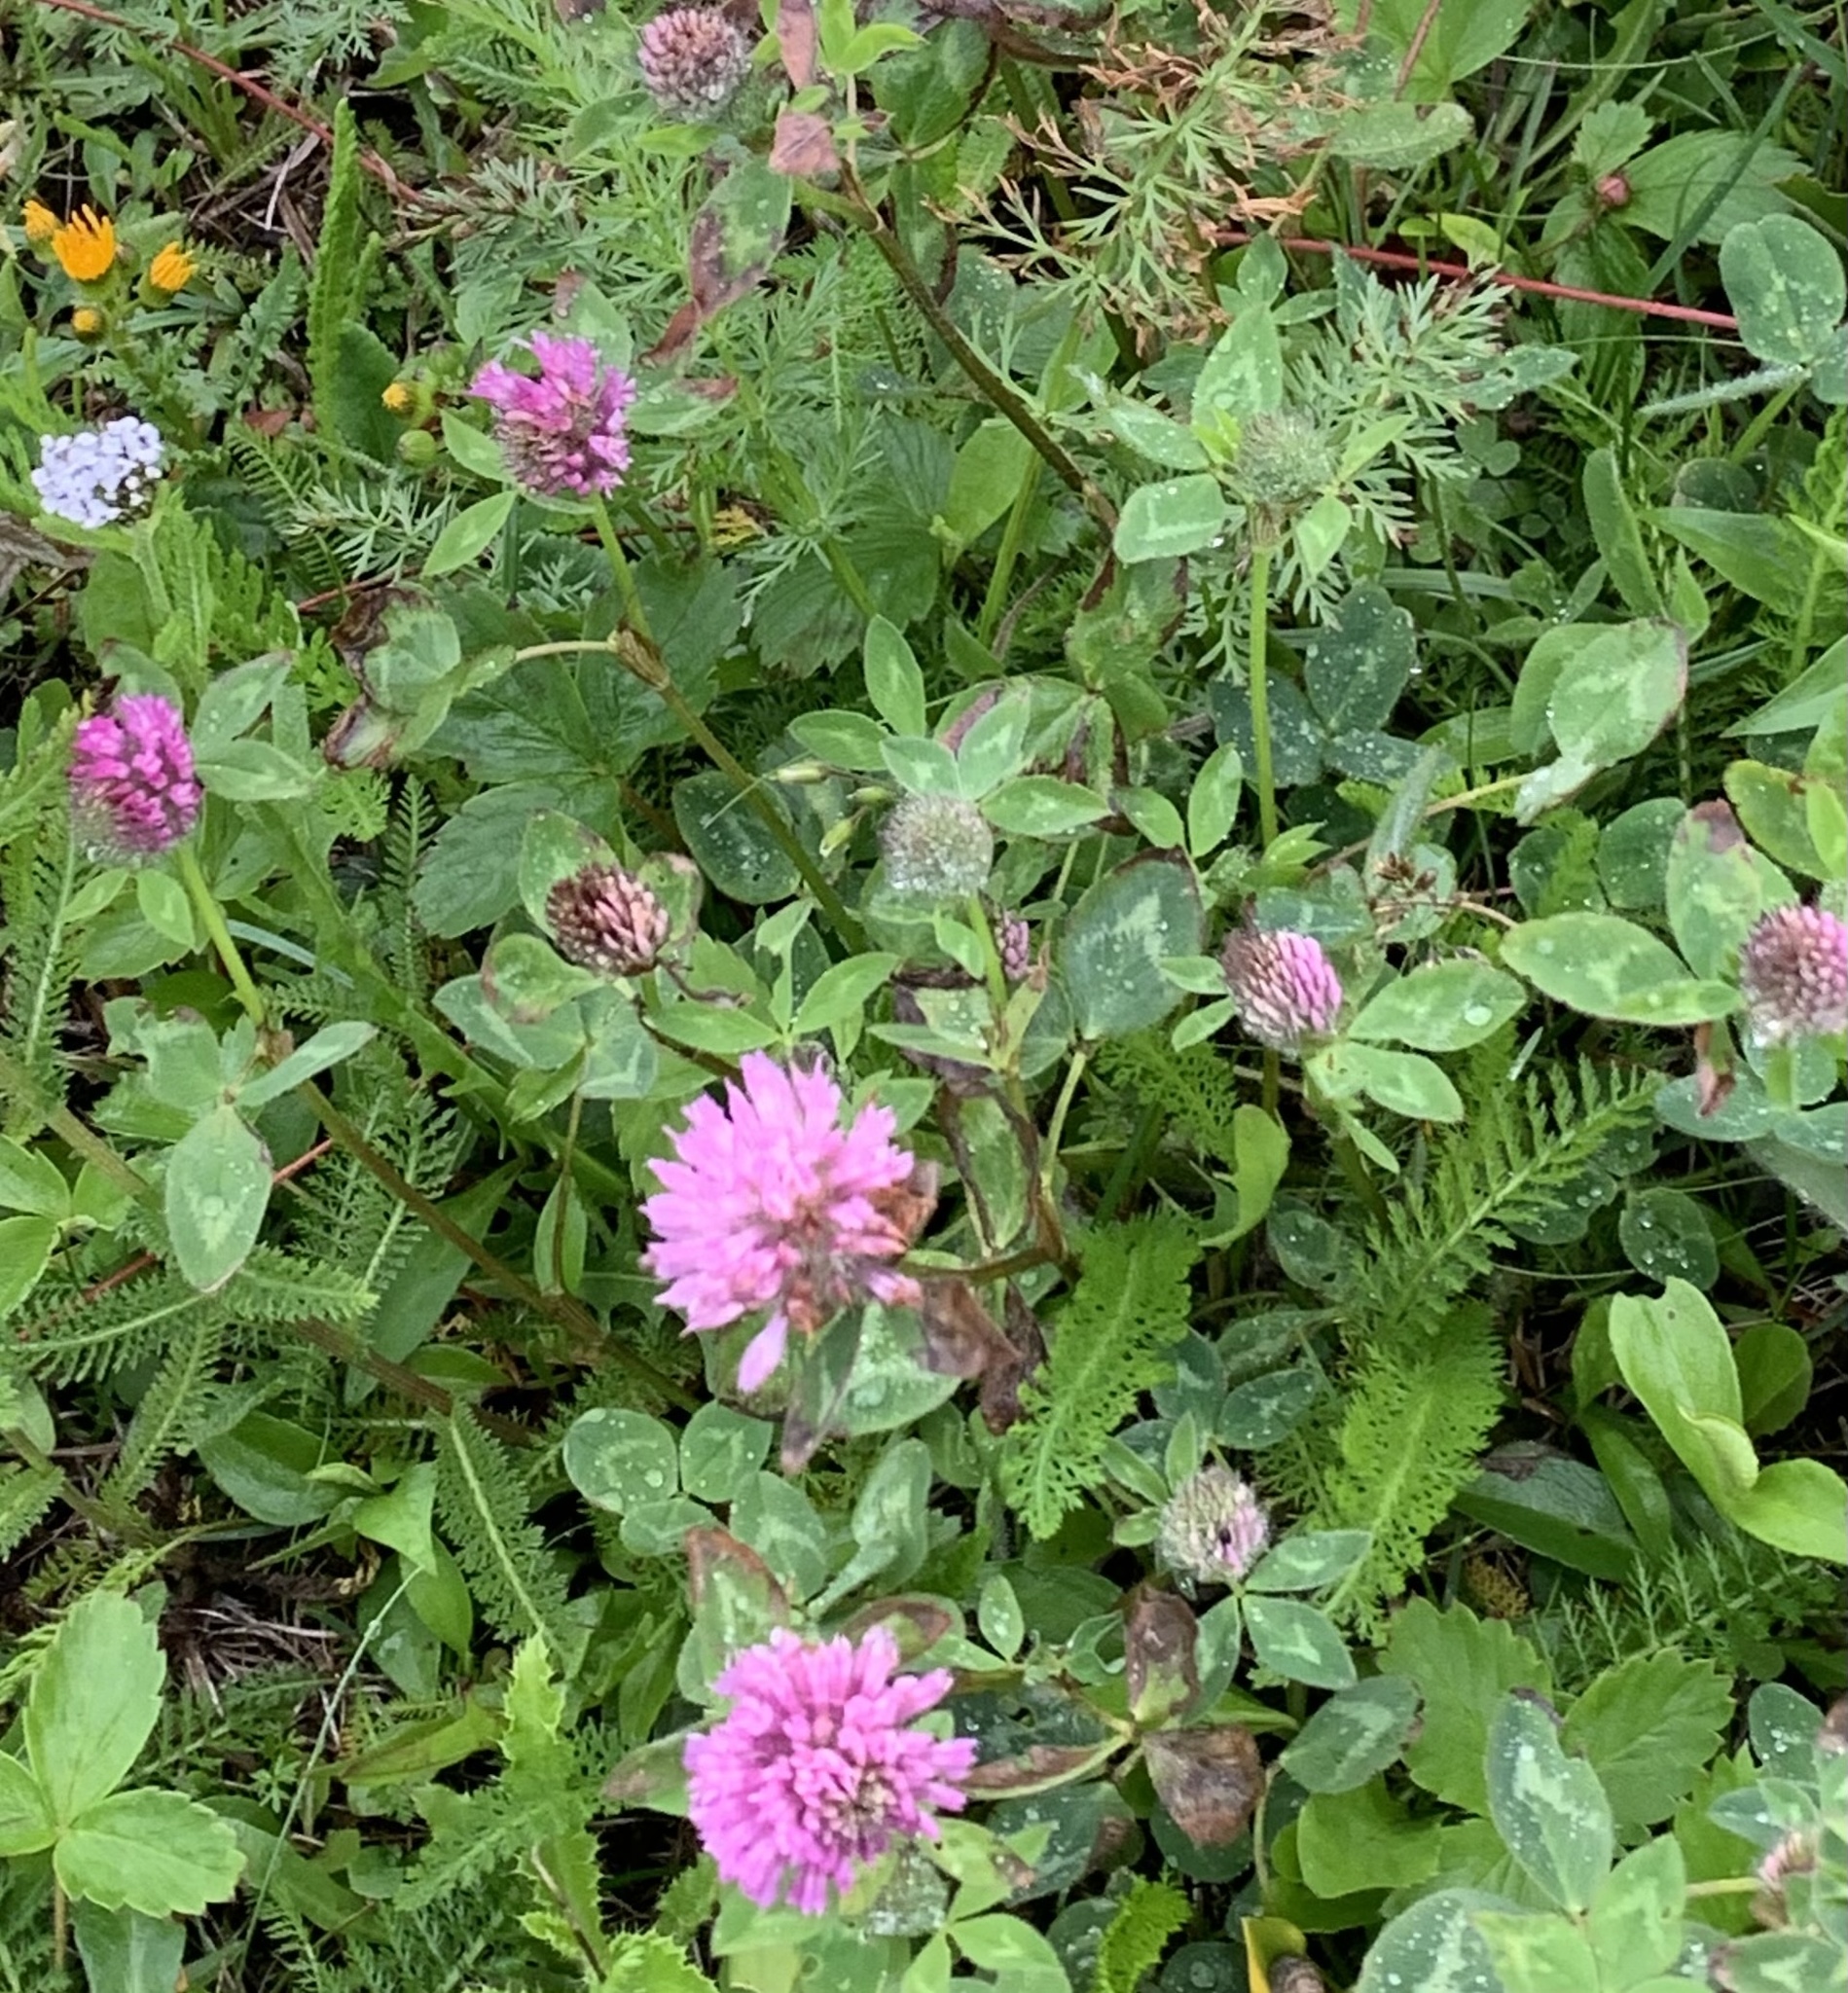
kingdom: Plantae
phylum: Tracheophyta
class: Magnoliopsida
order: Fabales
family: Fabaceae
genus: Trifolium
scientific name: Trifolium pratense
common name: Red clover
